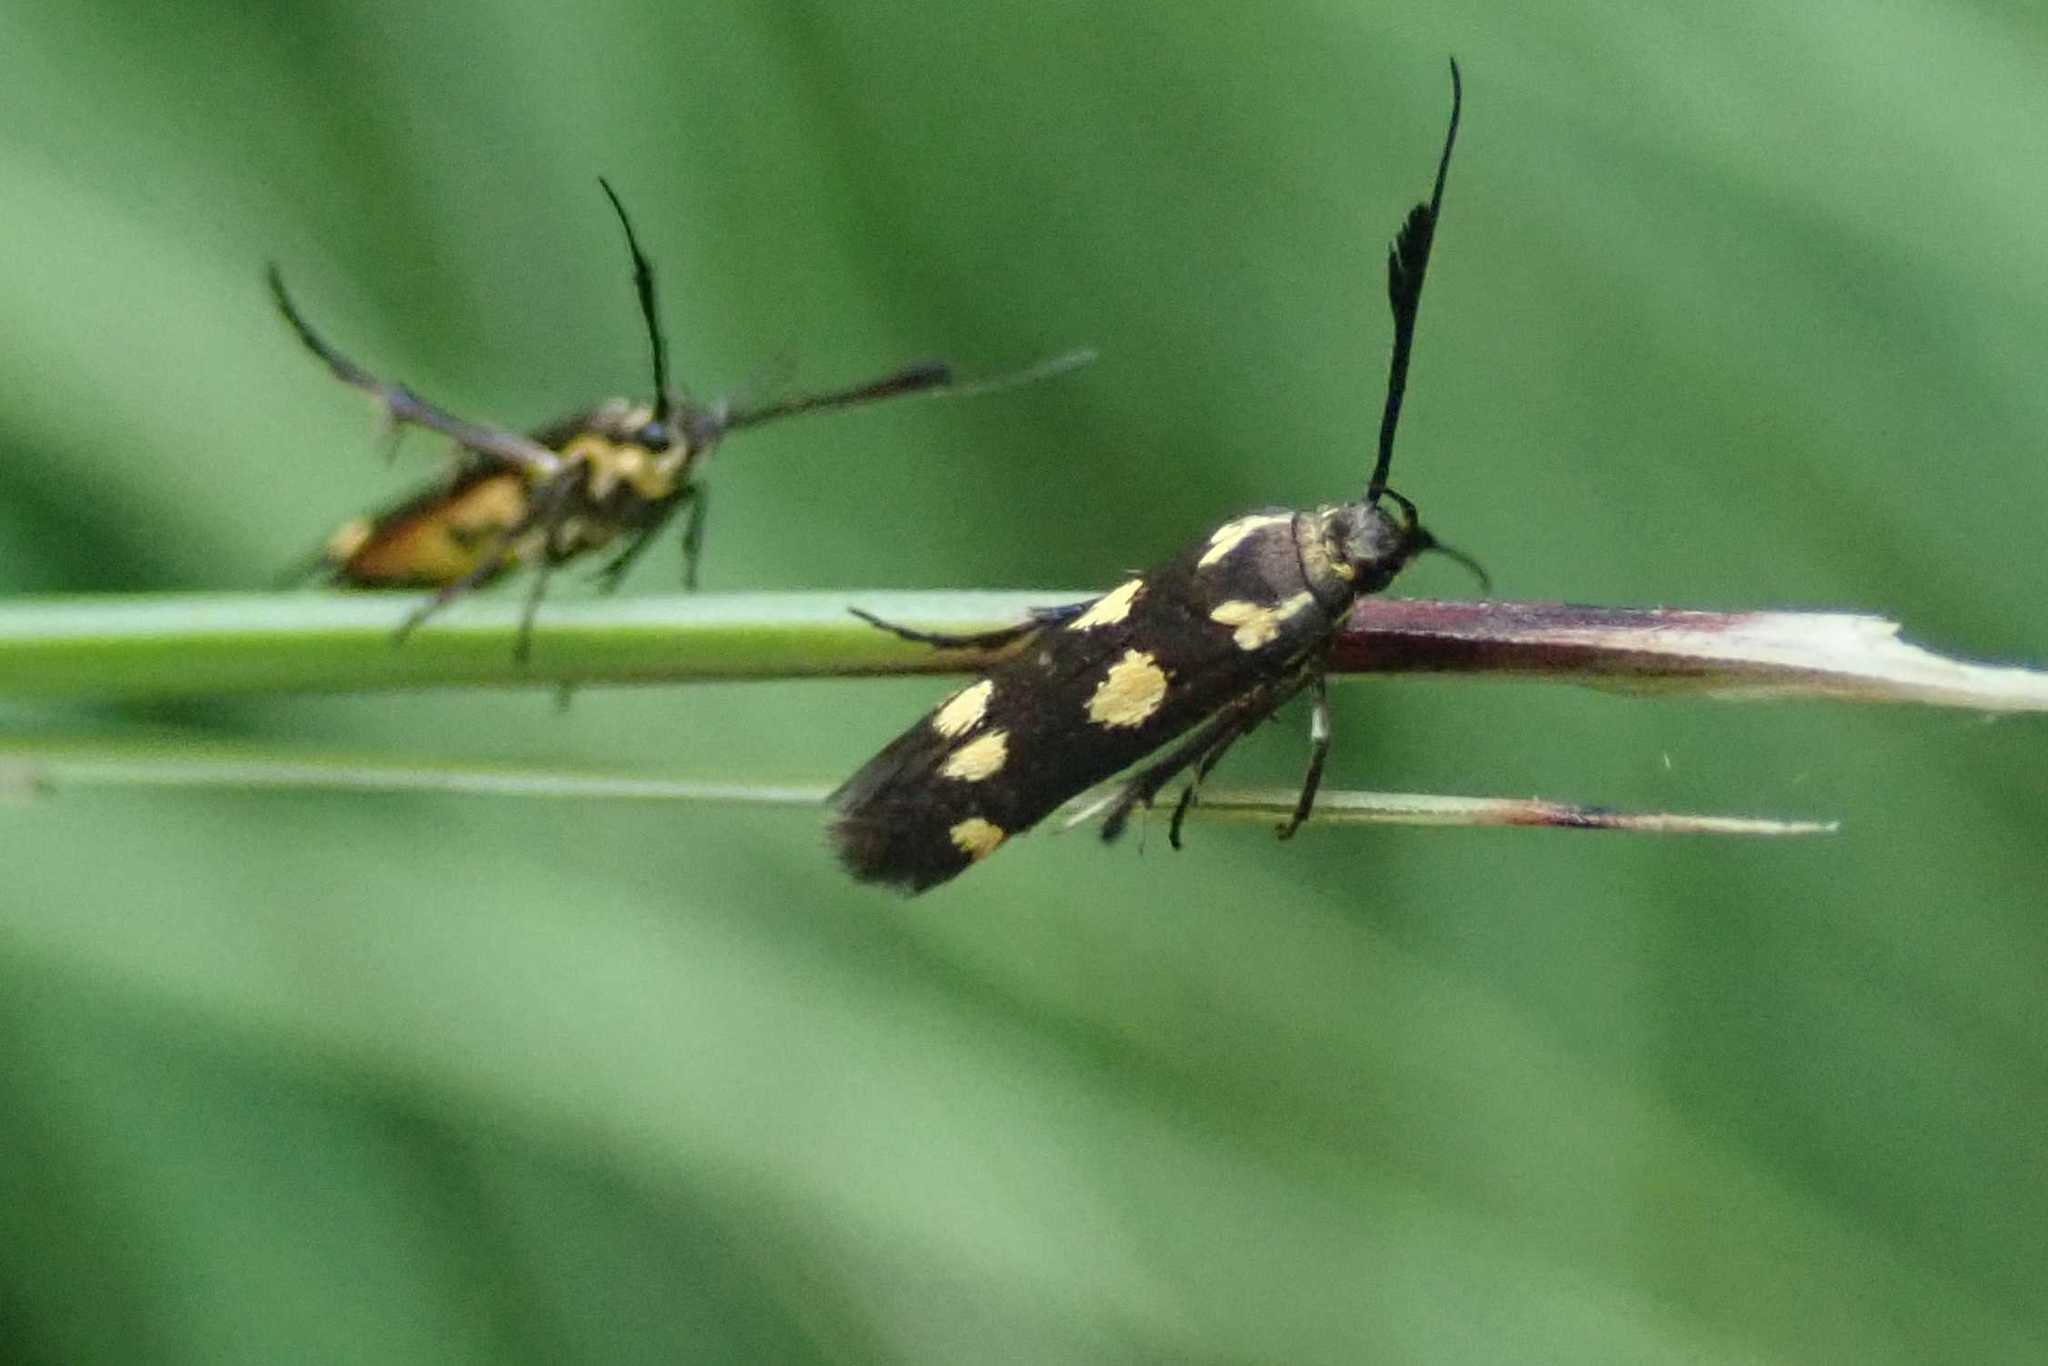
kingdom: Animalia
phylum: Arthropoda
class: Insecta
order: Lepidoptera
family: Scythrididae
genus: Eretmocera
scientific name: Eretmocera syleuta
